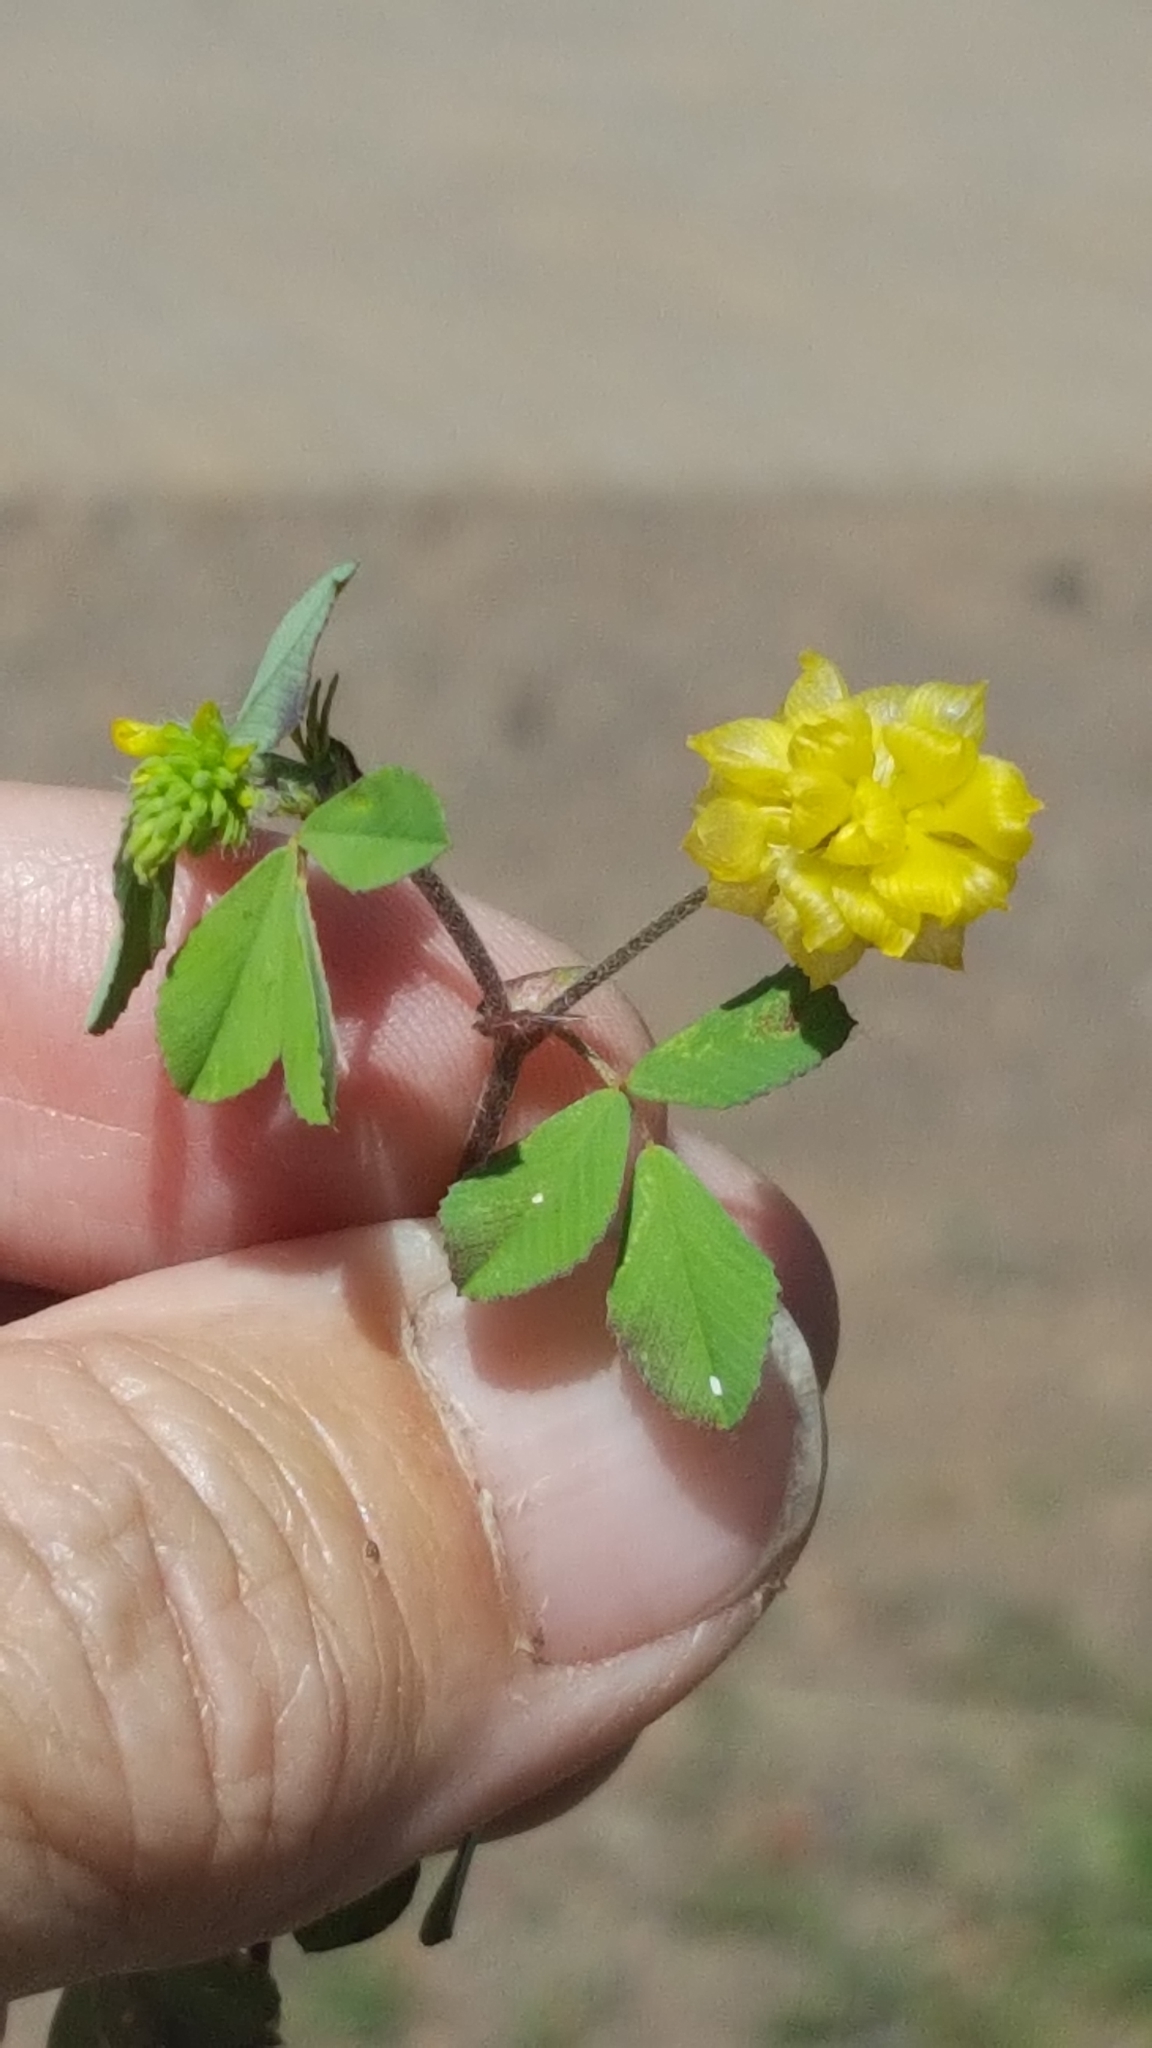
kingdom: Plantae
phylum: Tracheophyta
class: Magnoliopsida
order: Fabales
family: Fabaceae
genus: Trifolium
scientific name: Trifolium campestre
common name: Field clover
